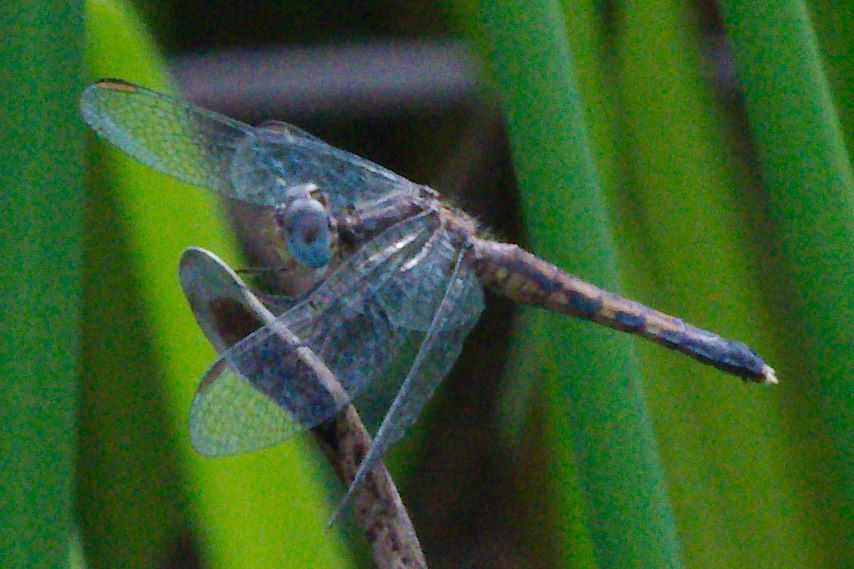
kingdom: Animalia
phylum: Arthropoda
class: Insecta
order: Odonata
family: Libellulidae
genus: Erythrodiplax
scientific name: Erythrodiplax minuscula
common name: Little blue dragonlet
